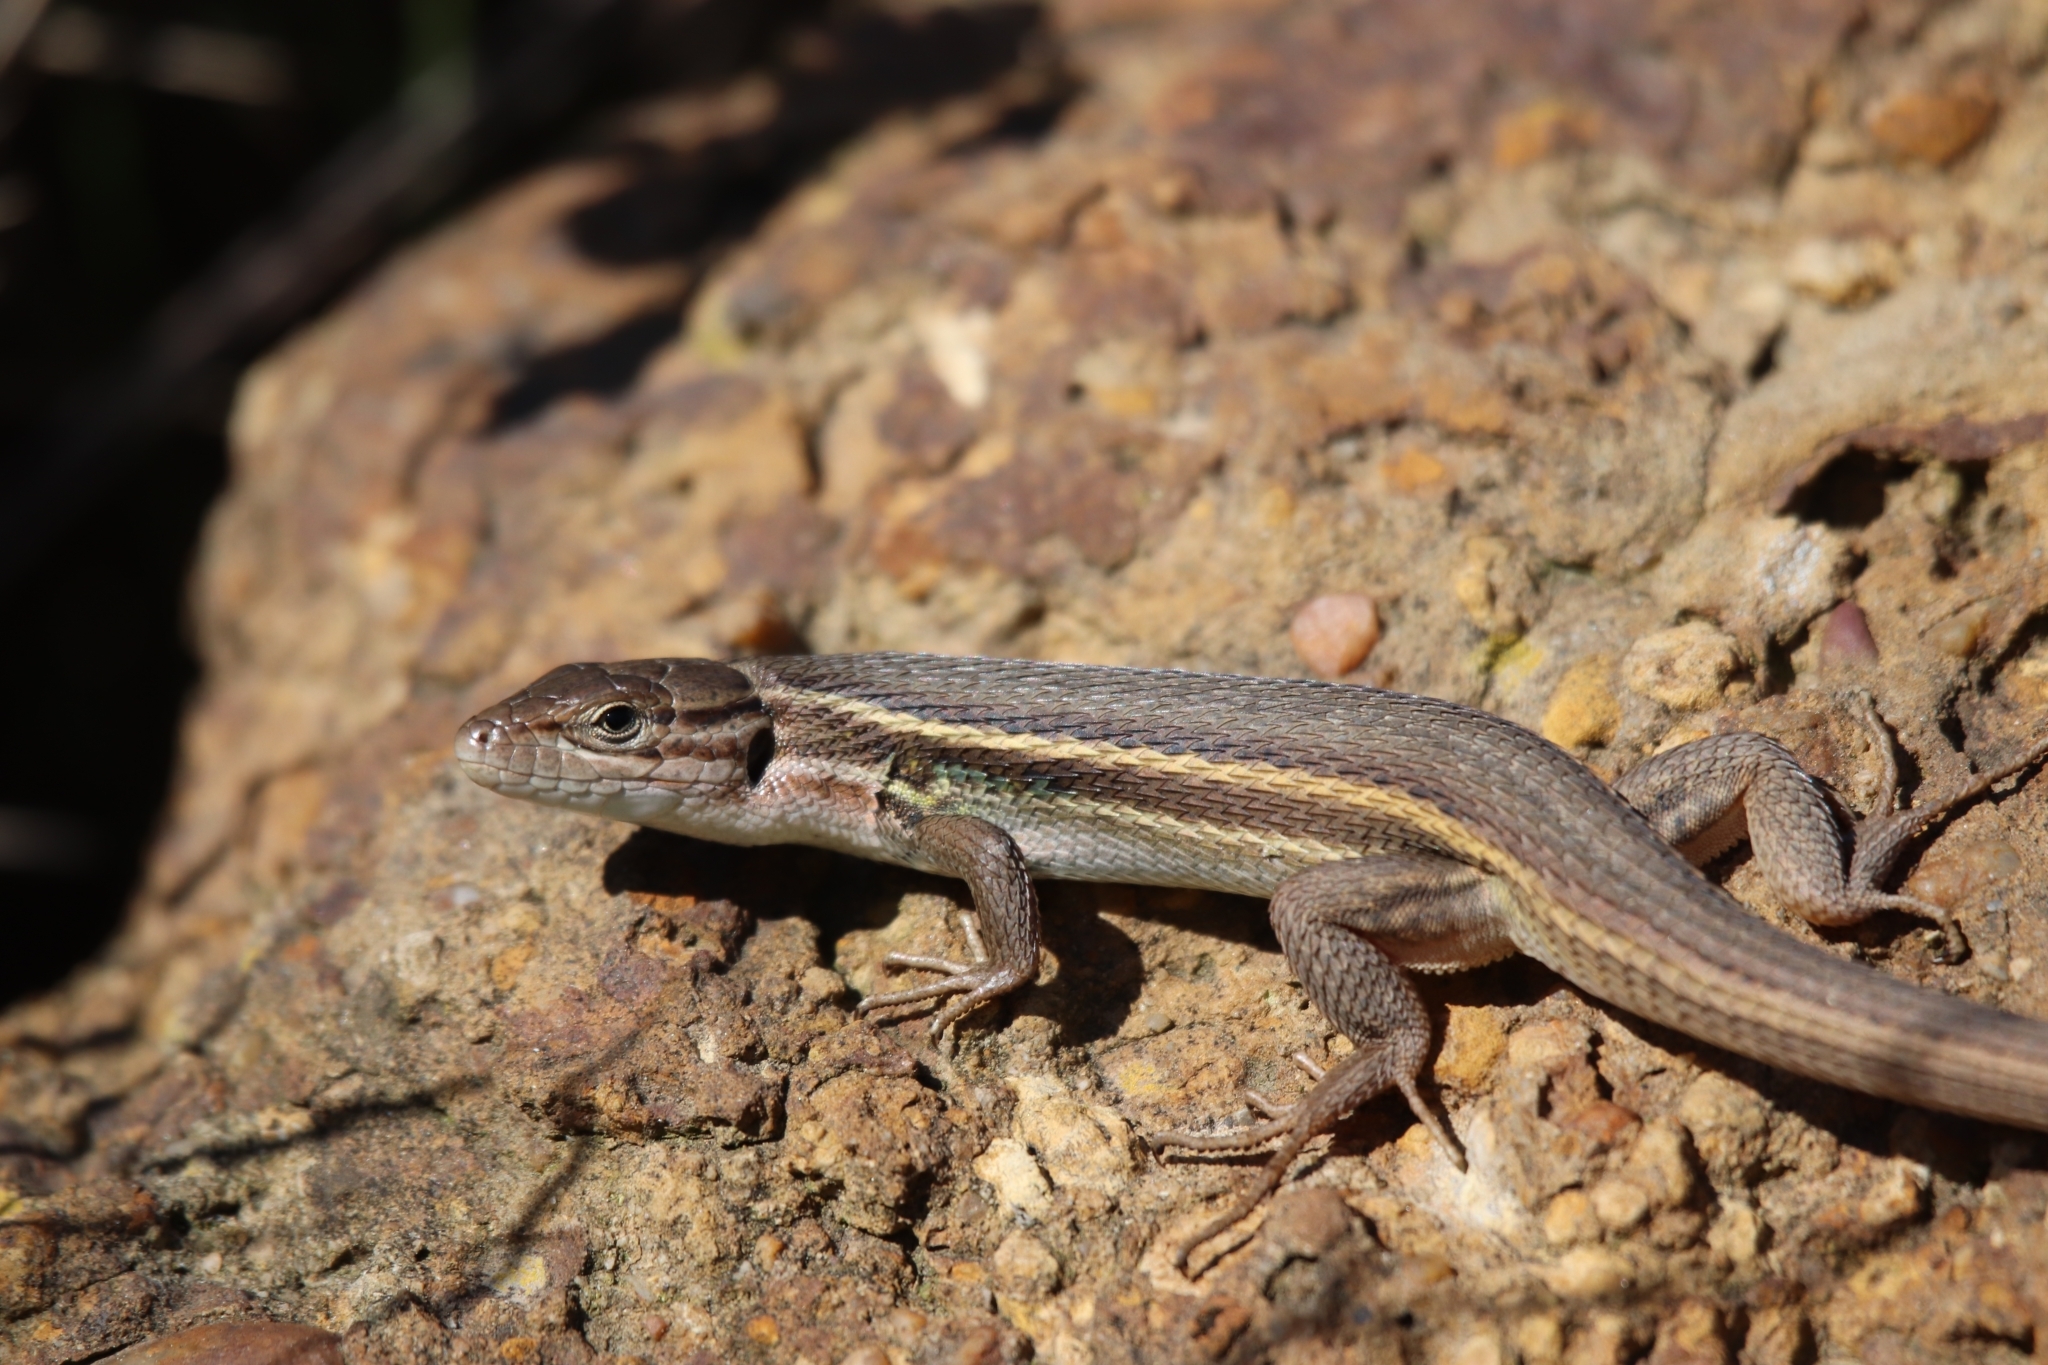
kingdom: Animalia
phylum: Chordata
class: Squamata
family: Lacertidae
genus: Psammodromus
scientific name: Psammodromus algirus
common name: Algerian psammodromus
